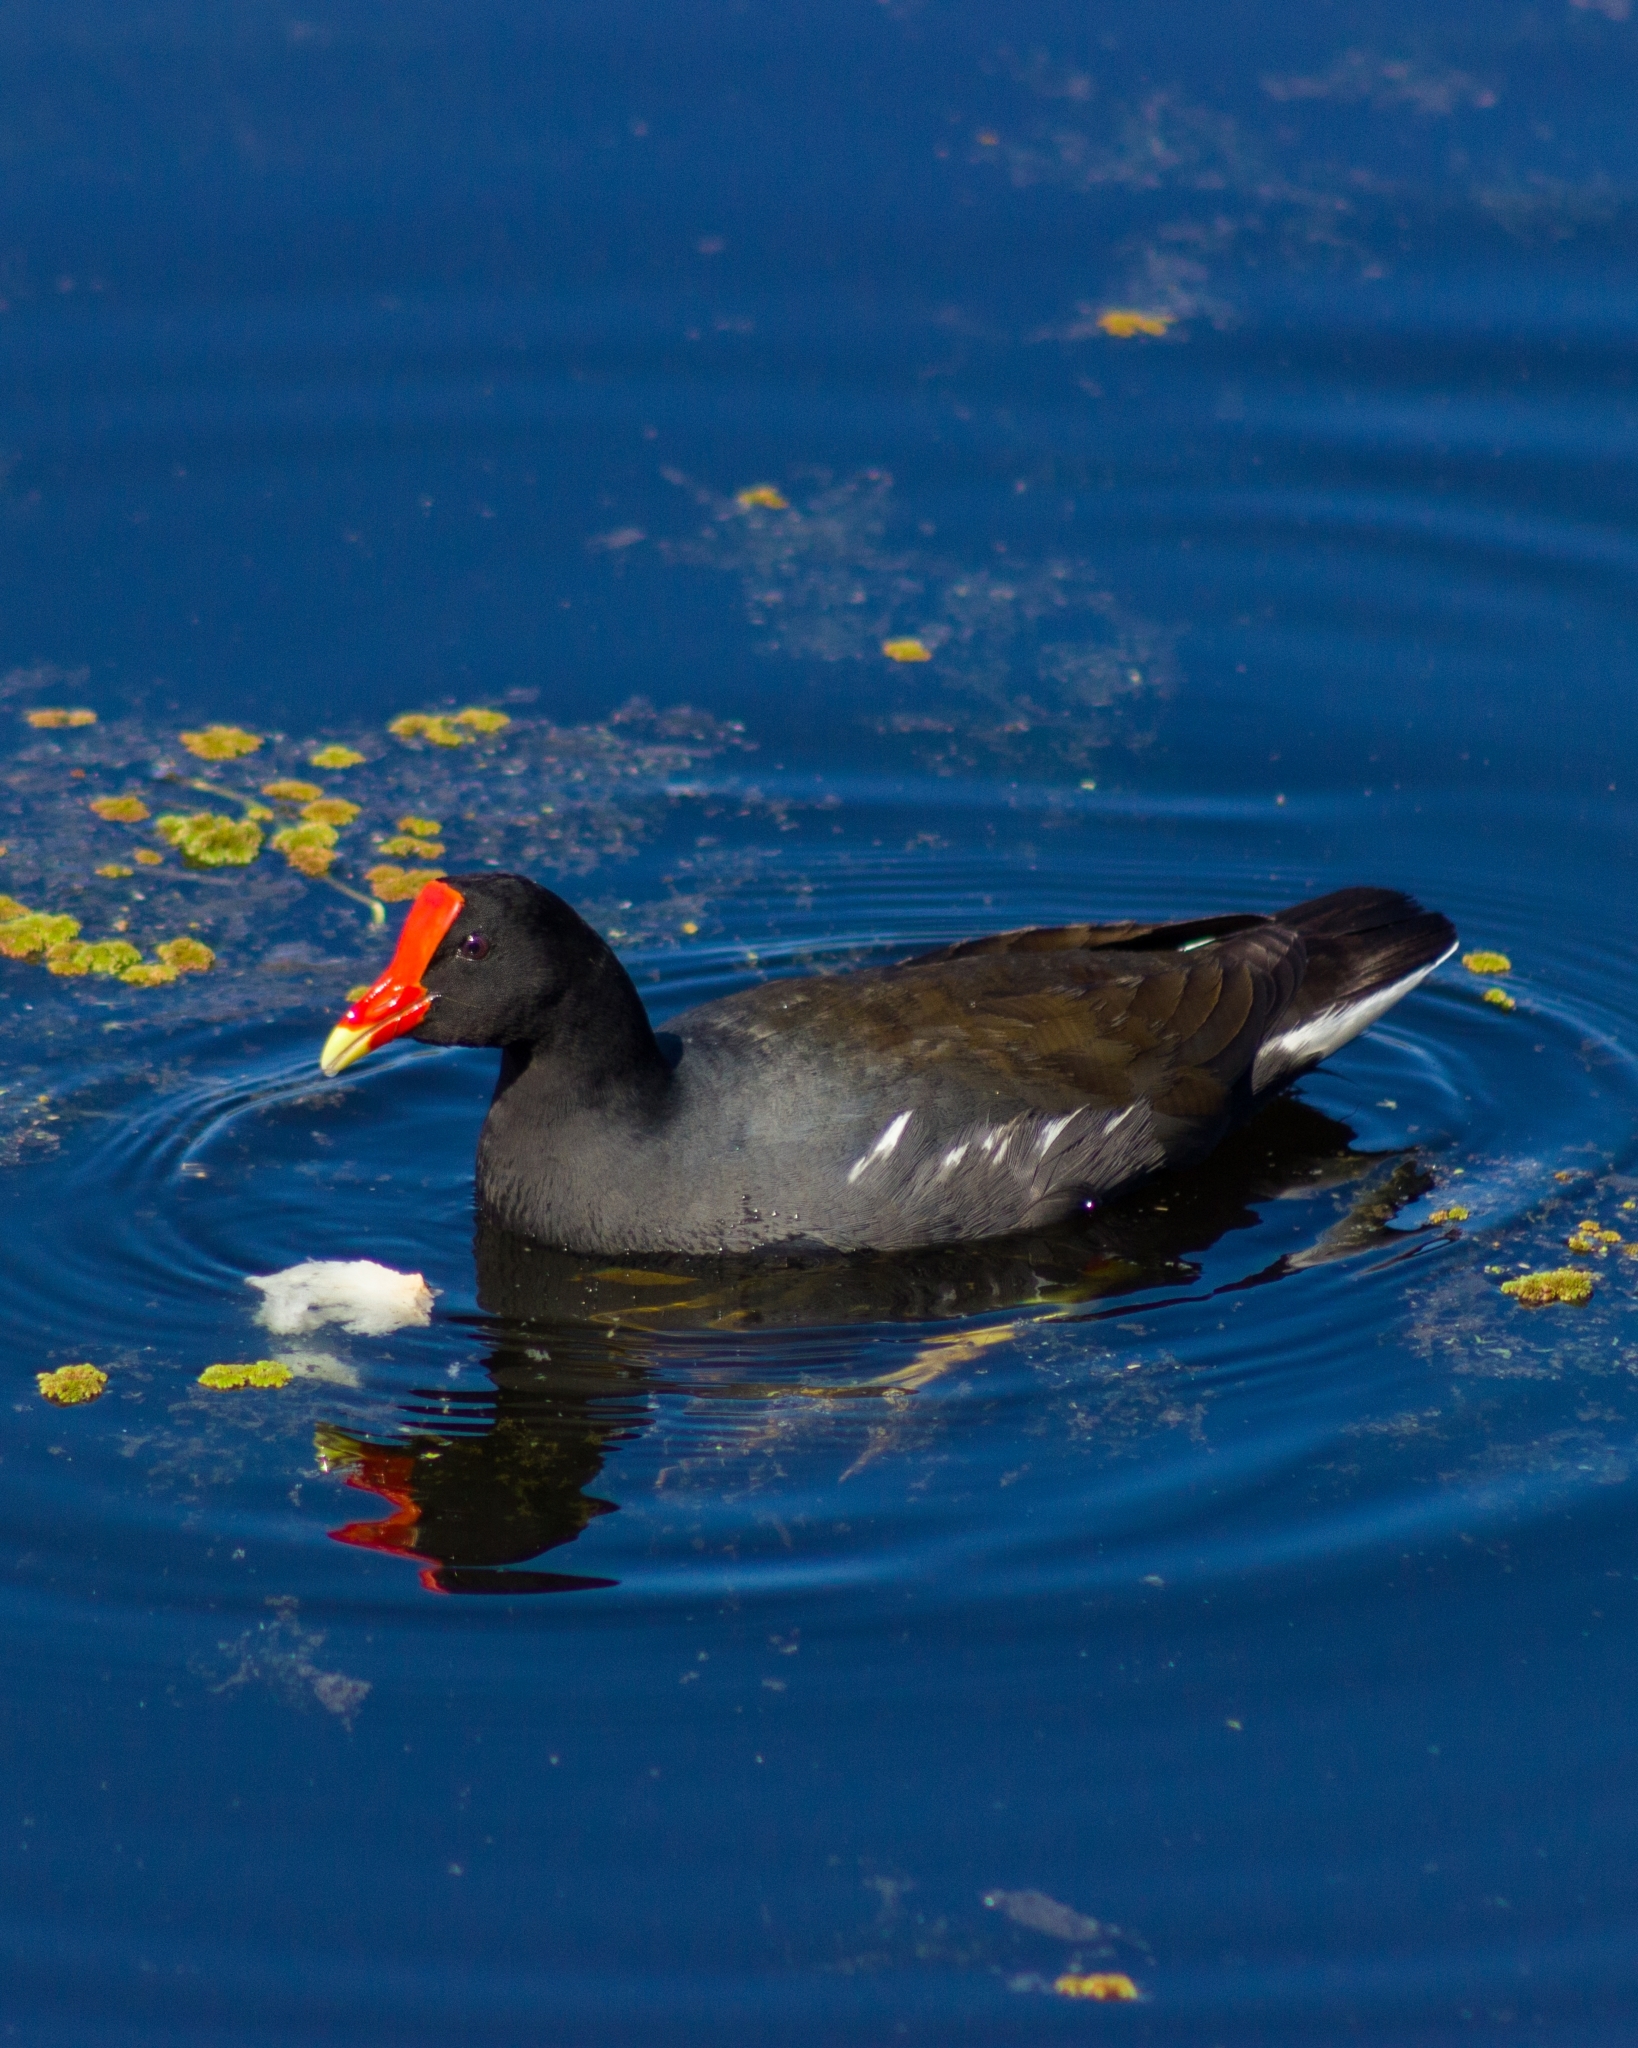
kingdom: Animalia
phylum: Chordata
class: Aves
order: Gruiformes
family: Rallidae
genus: Gallinula
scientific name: Gallinula chloropus
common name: Common moorhen
